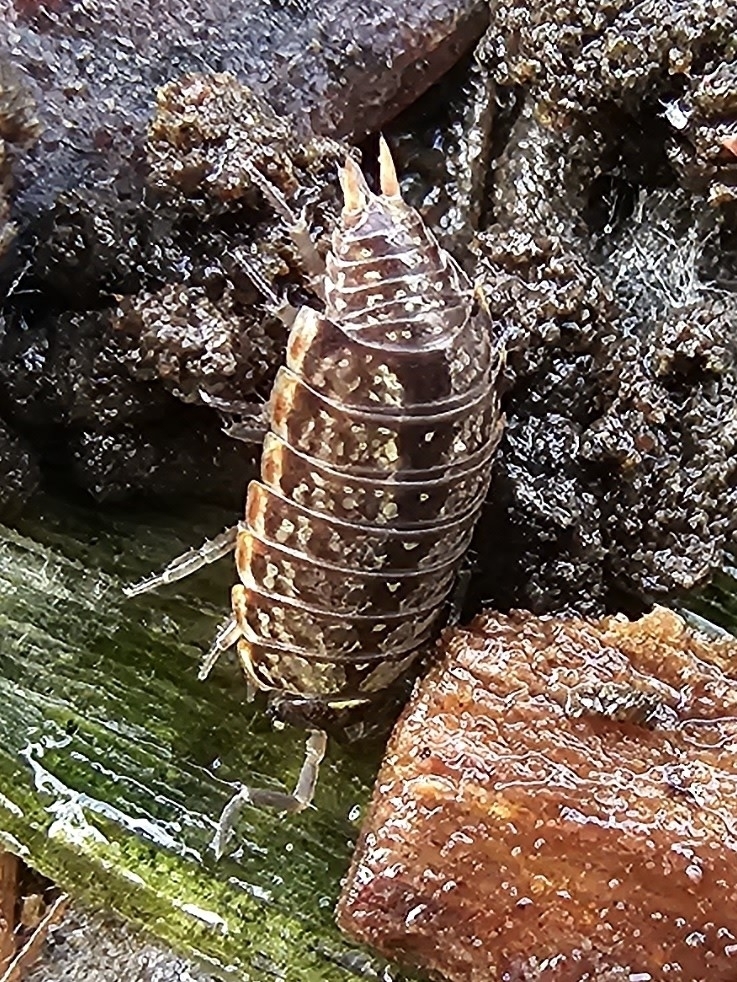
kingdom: Animalia
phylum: Arthropoda
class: Malacostraca
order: Isopoda
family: Philosciidae
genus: Philoscia
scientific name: Philoscia muscorum
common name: Common striped woodlouse
